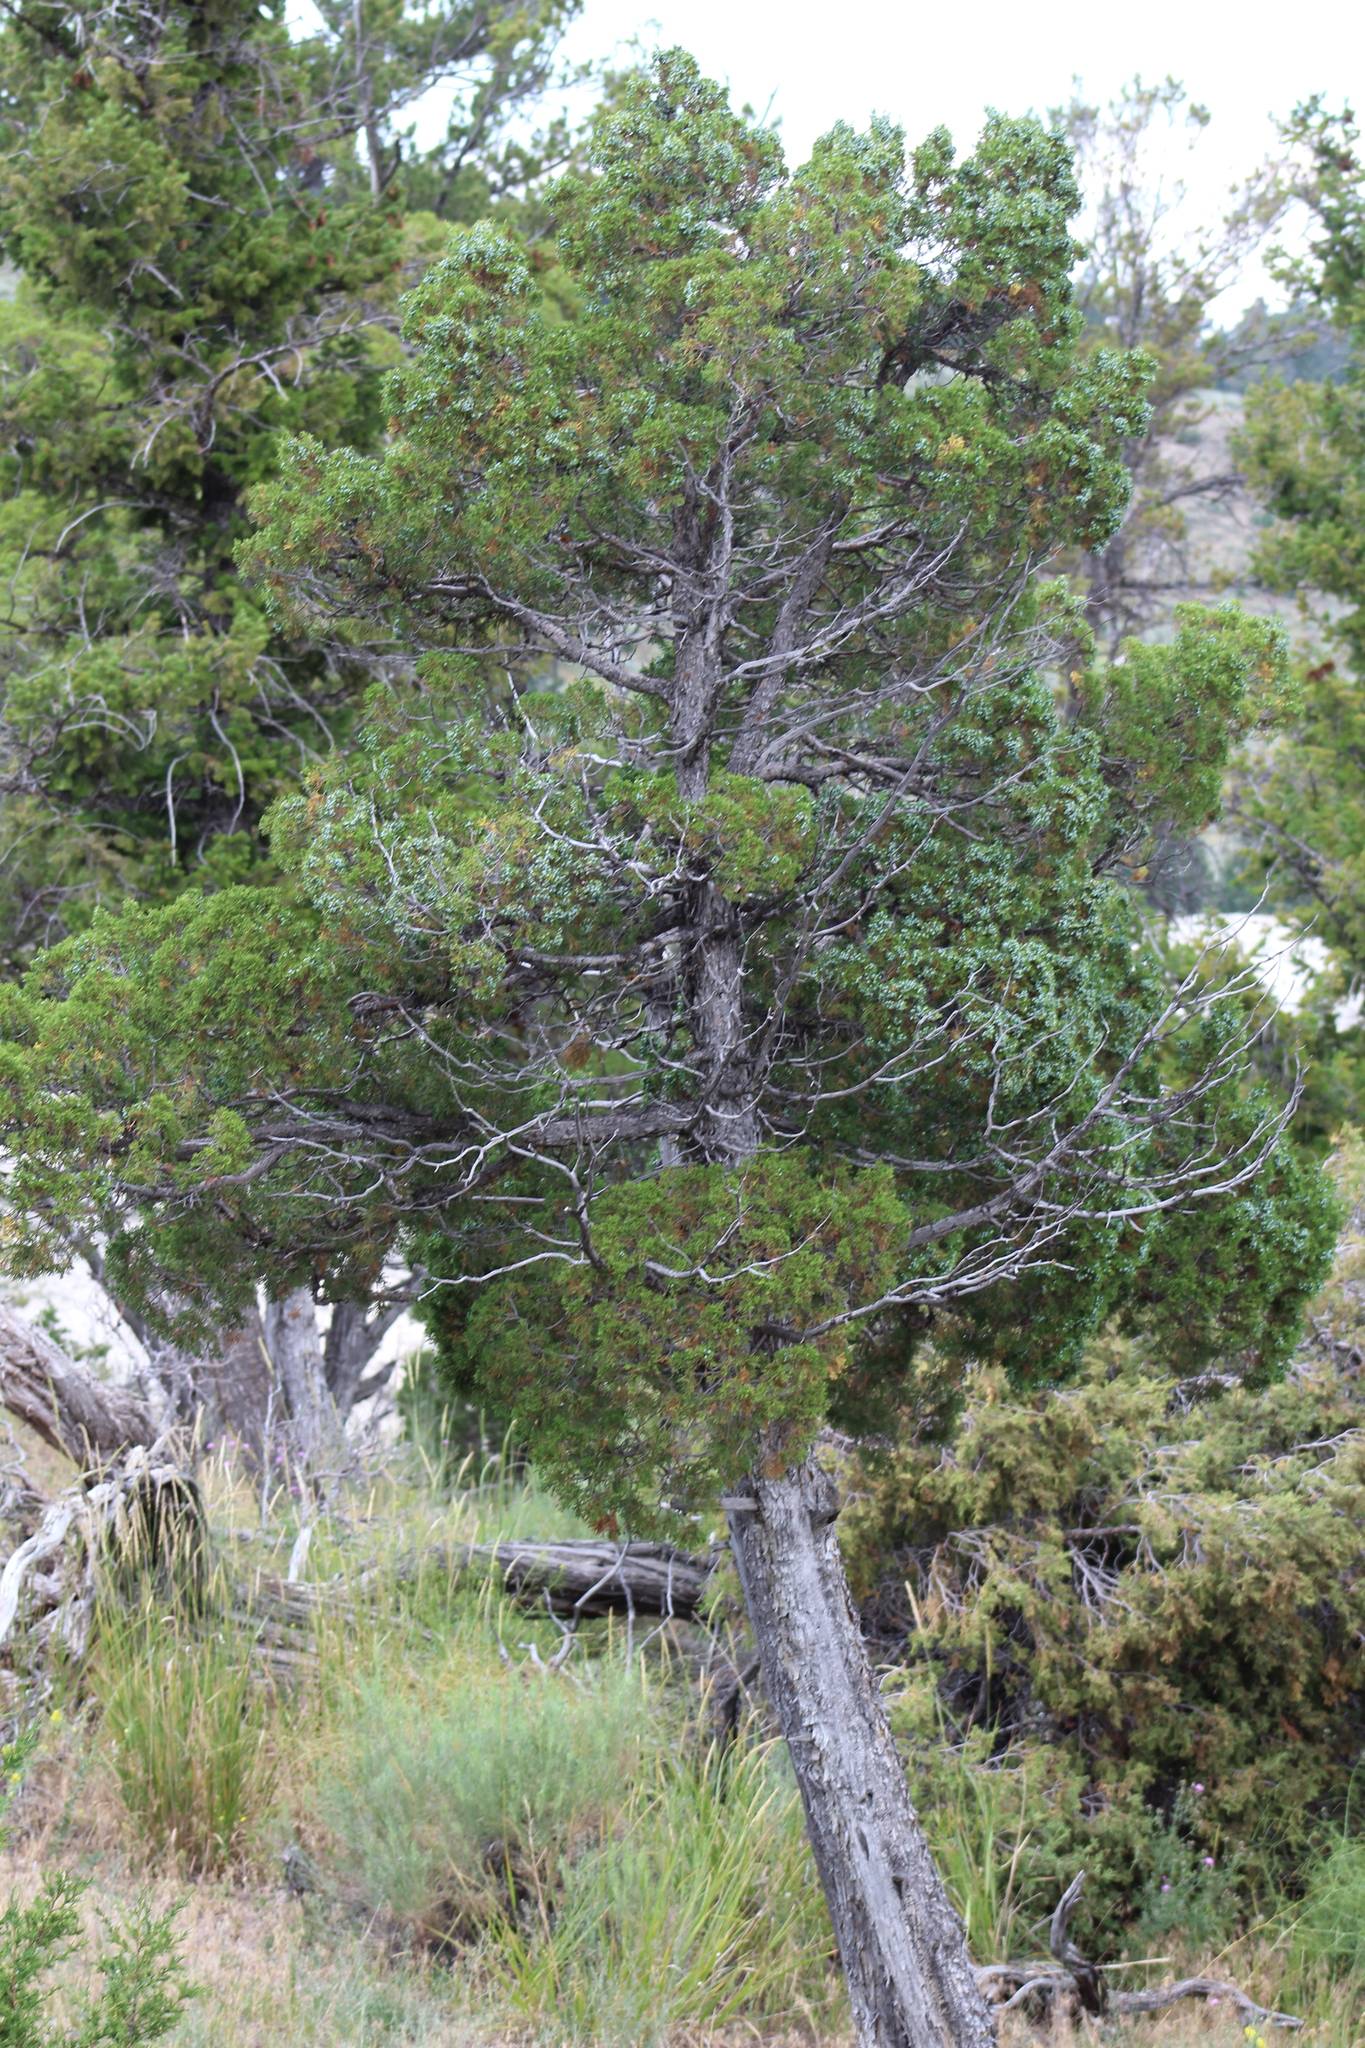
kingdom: Plantae
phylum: Tracheophyta
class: Pinopsida
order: Pinales
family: Cupressaceae
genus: Juniperus
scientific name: Juniperus scopulorum
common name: Rocky mountain juniper
